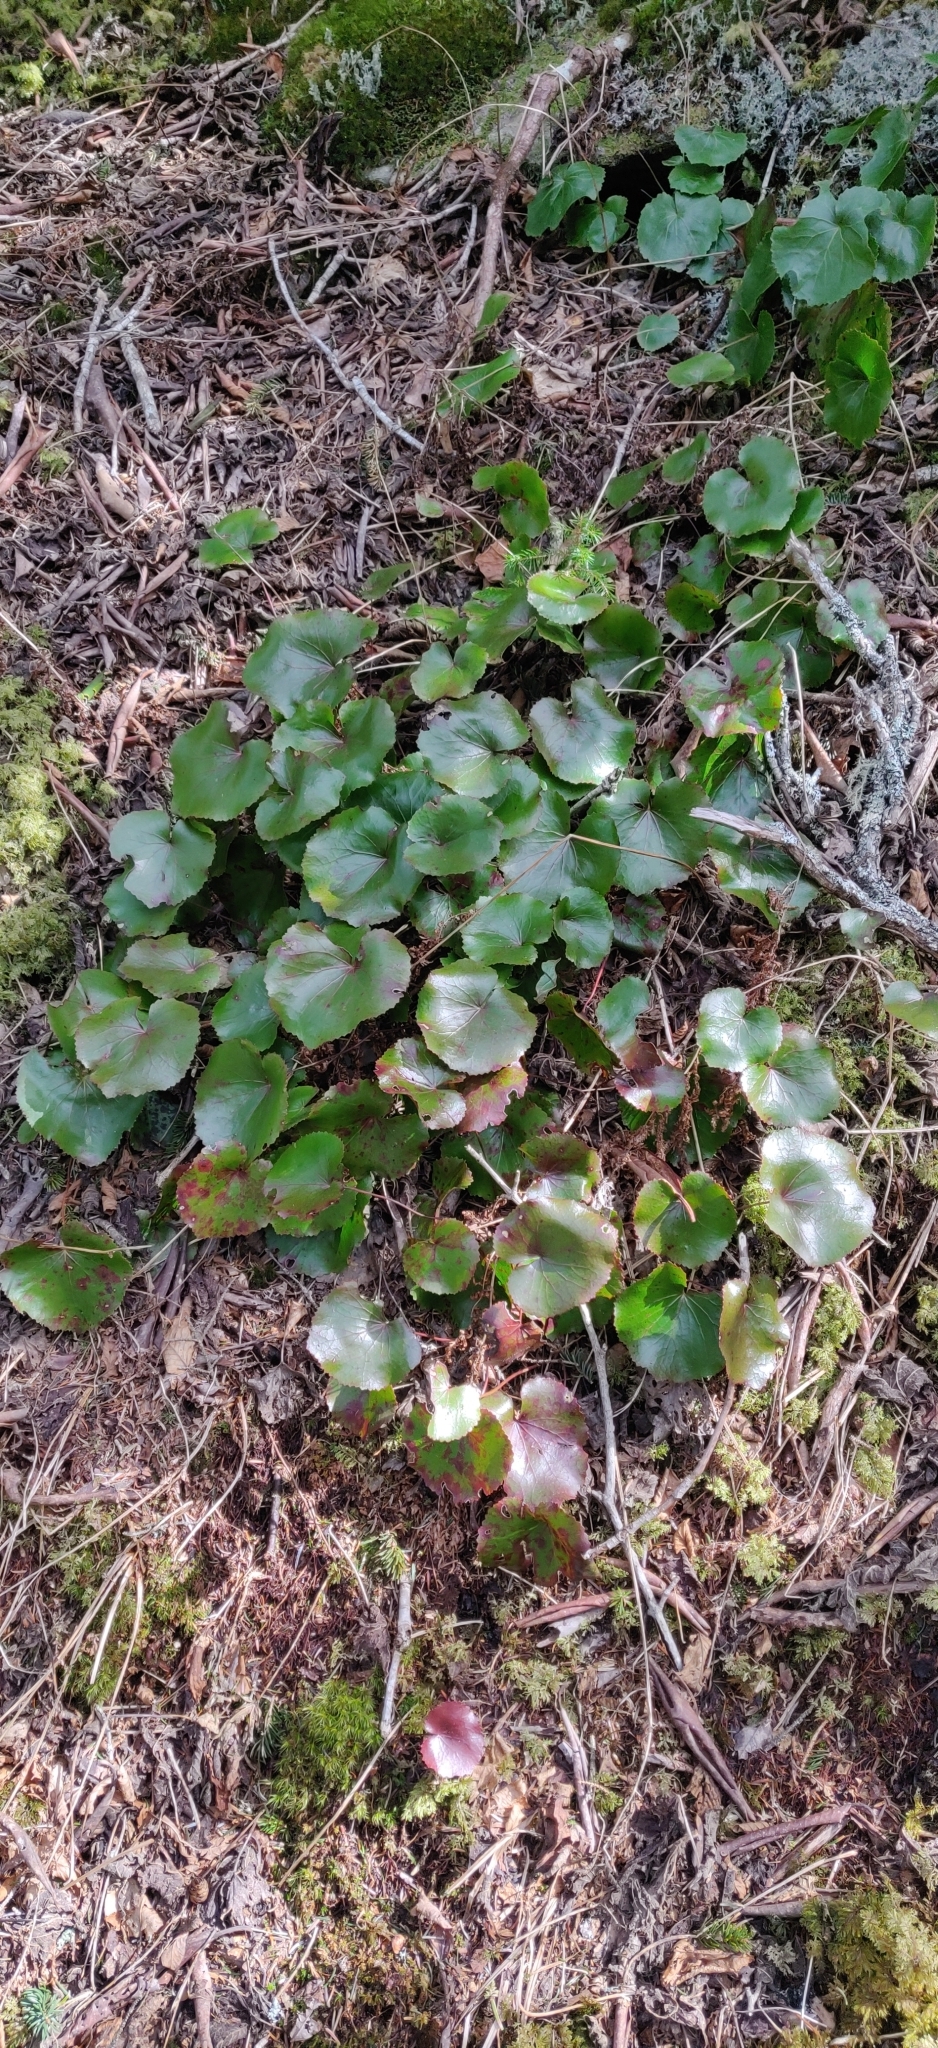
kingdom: Plantae
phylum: Tracheophyta
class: Magnoliopsida
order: Ericales
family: Diapensiaceae
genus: Galax
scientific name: Galax urceolata
